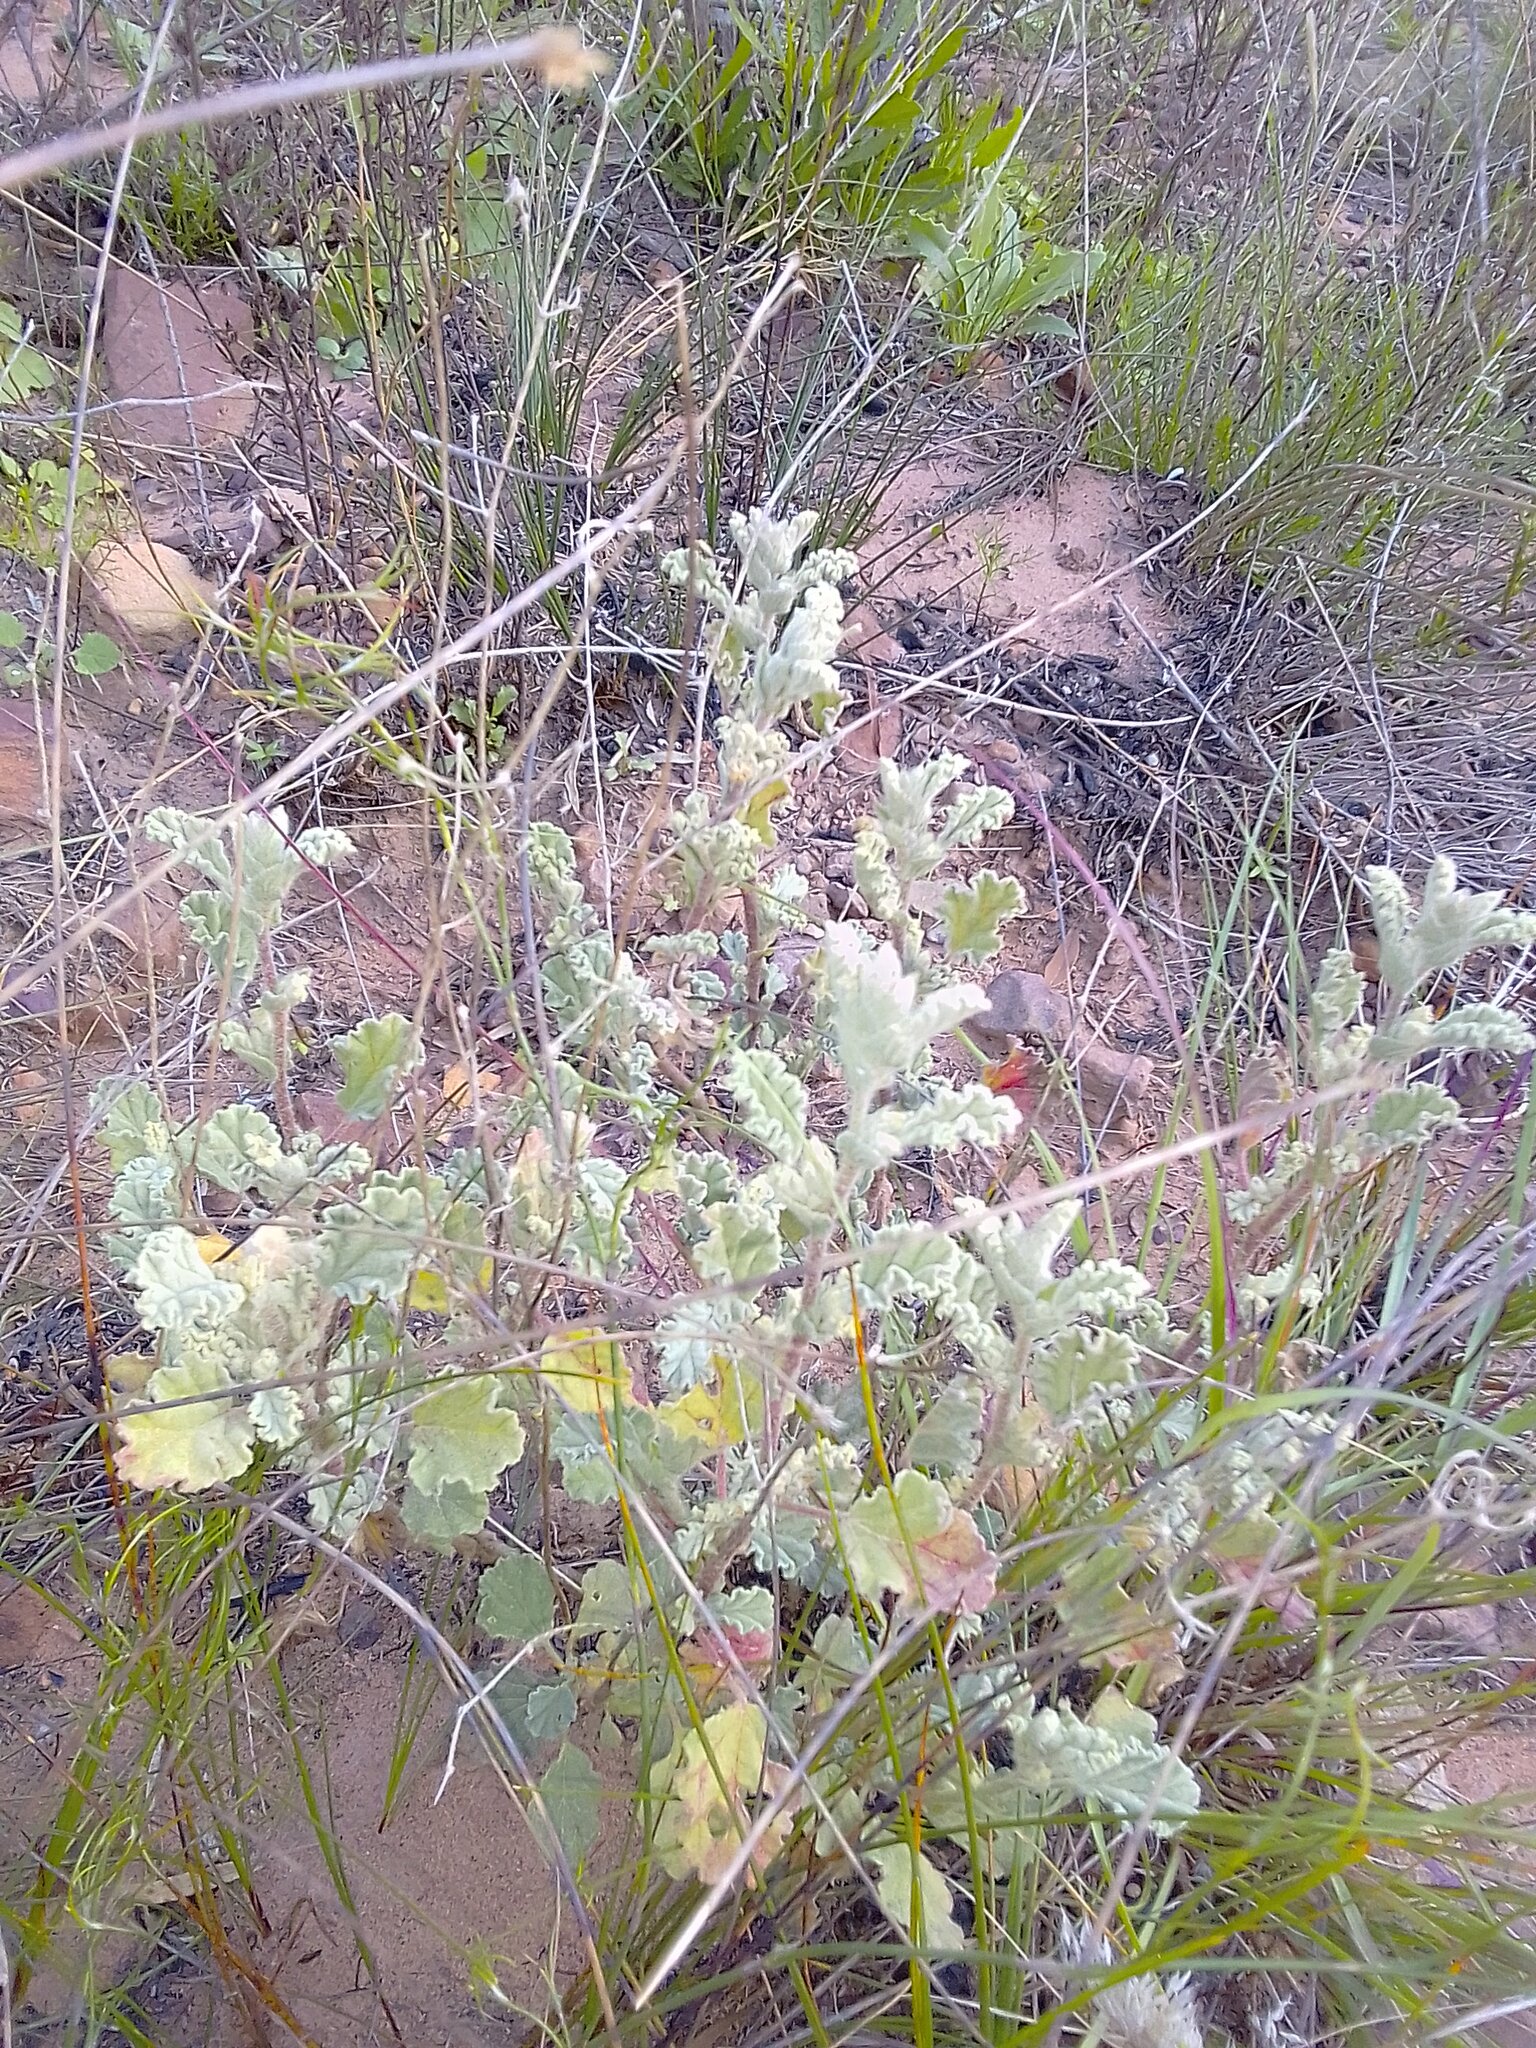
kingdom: Plantae
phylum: Tracheophyta
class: Magnoliopsida
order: Malvales
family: Malvaceae
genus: Hermannia
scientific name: Hermannia althaeifolia
